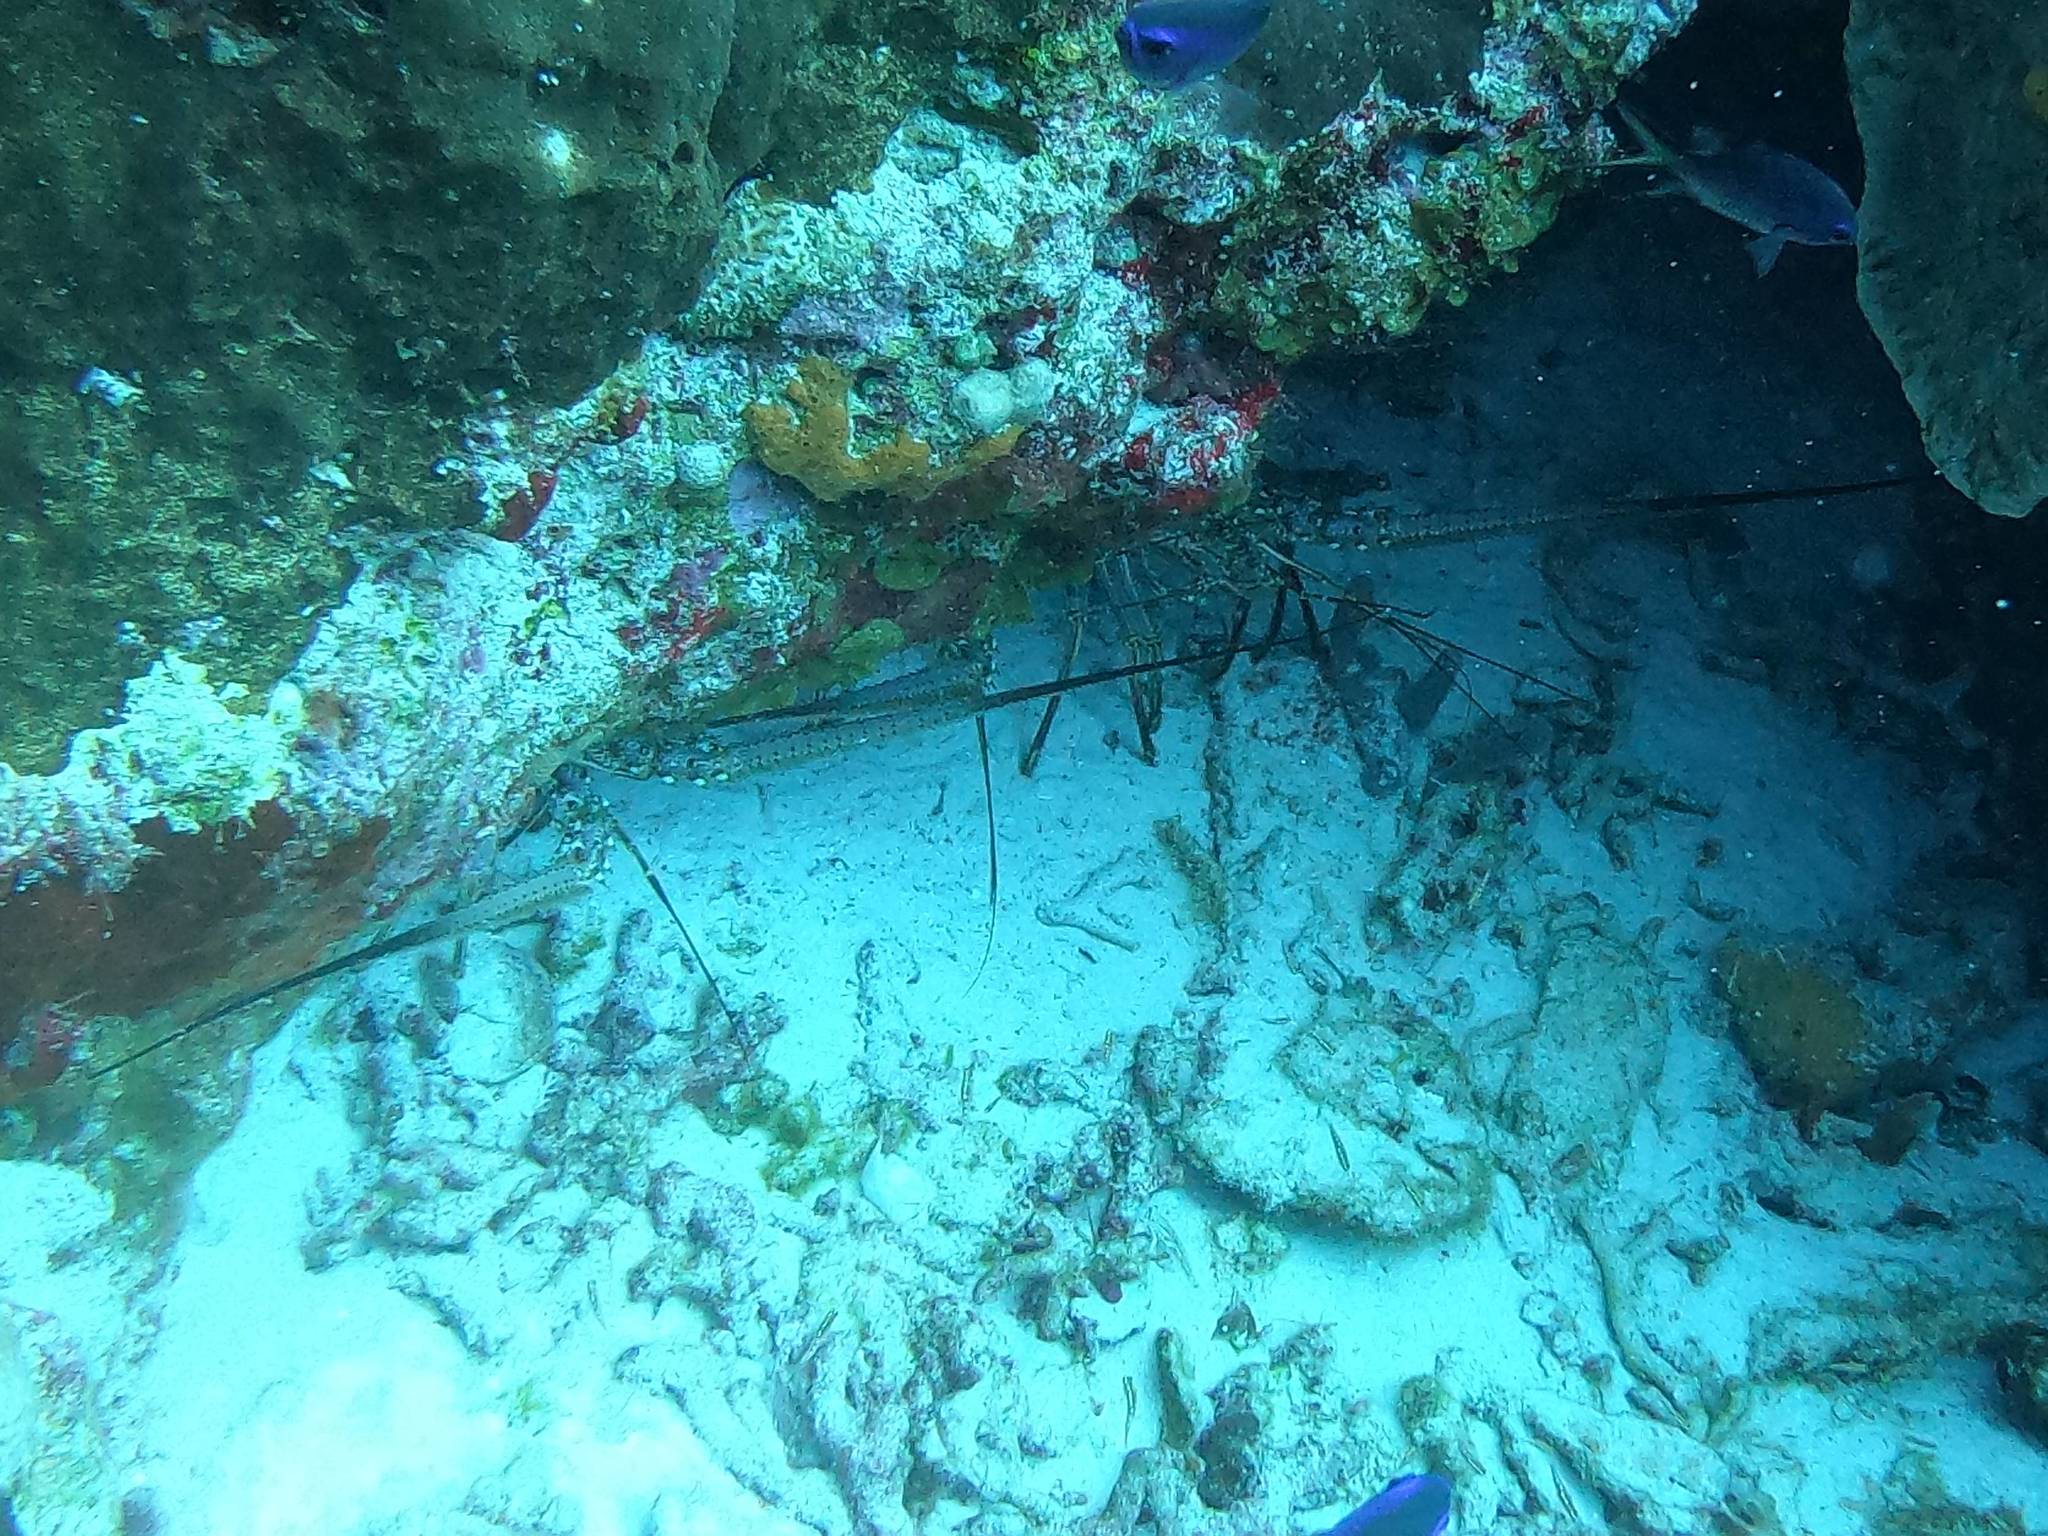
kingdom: Animalia
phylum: Arthropoda
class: Malacostraca
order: Decapoda
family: Palinuridae
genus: Panulirus
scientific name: Panulirus argus
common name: Caribbean spiny lobster
